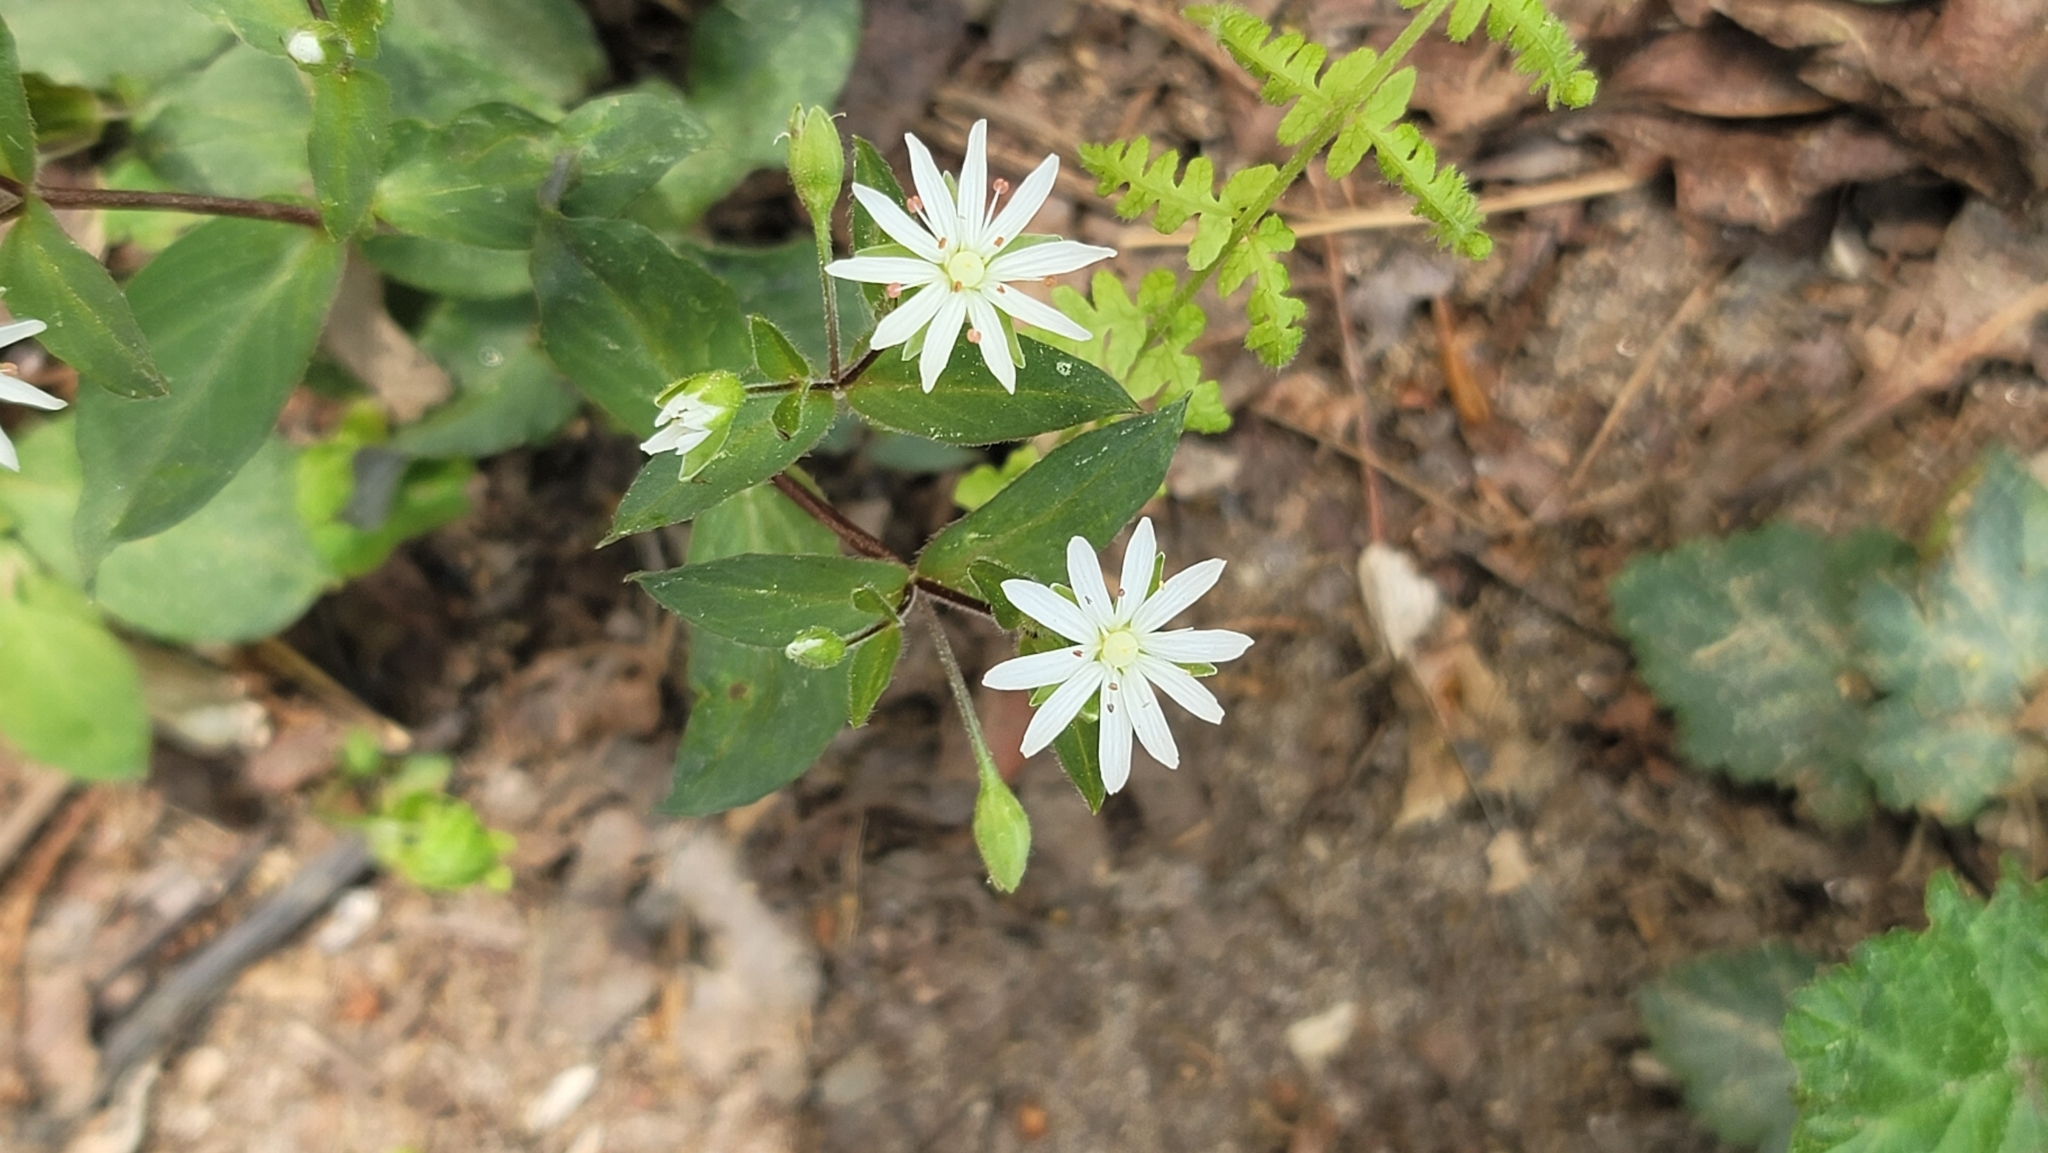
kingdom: Plantae
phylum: Tracheophyta
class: Magnoliopsida
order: Caryophyllales
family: Caryophyllaceae
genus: Stellaria
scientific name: Stellaria pubera
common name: Star chickweed
